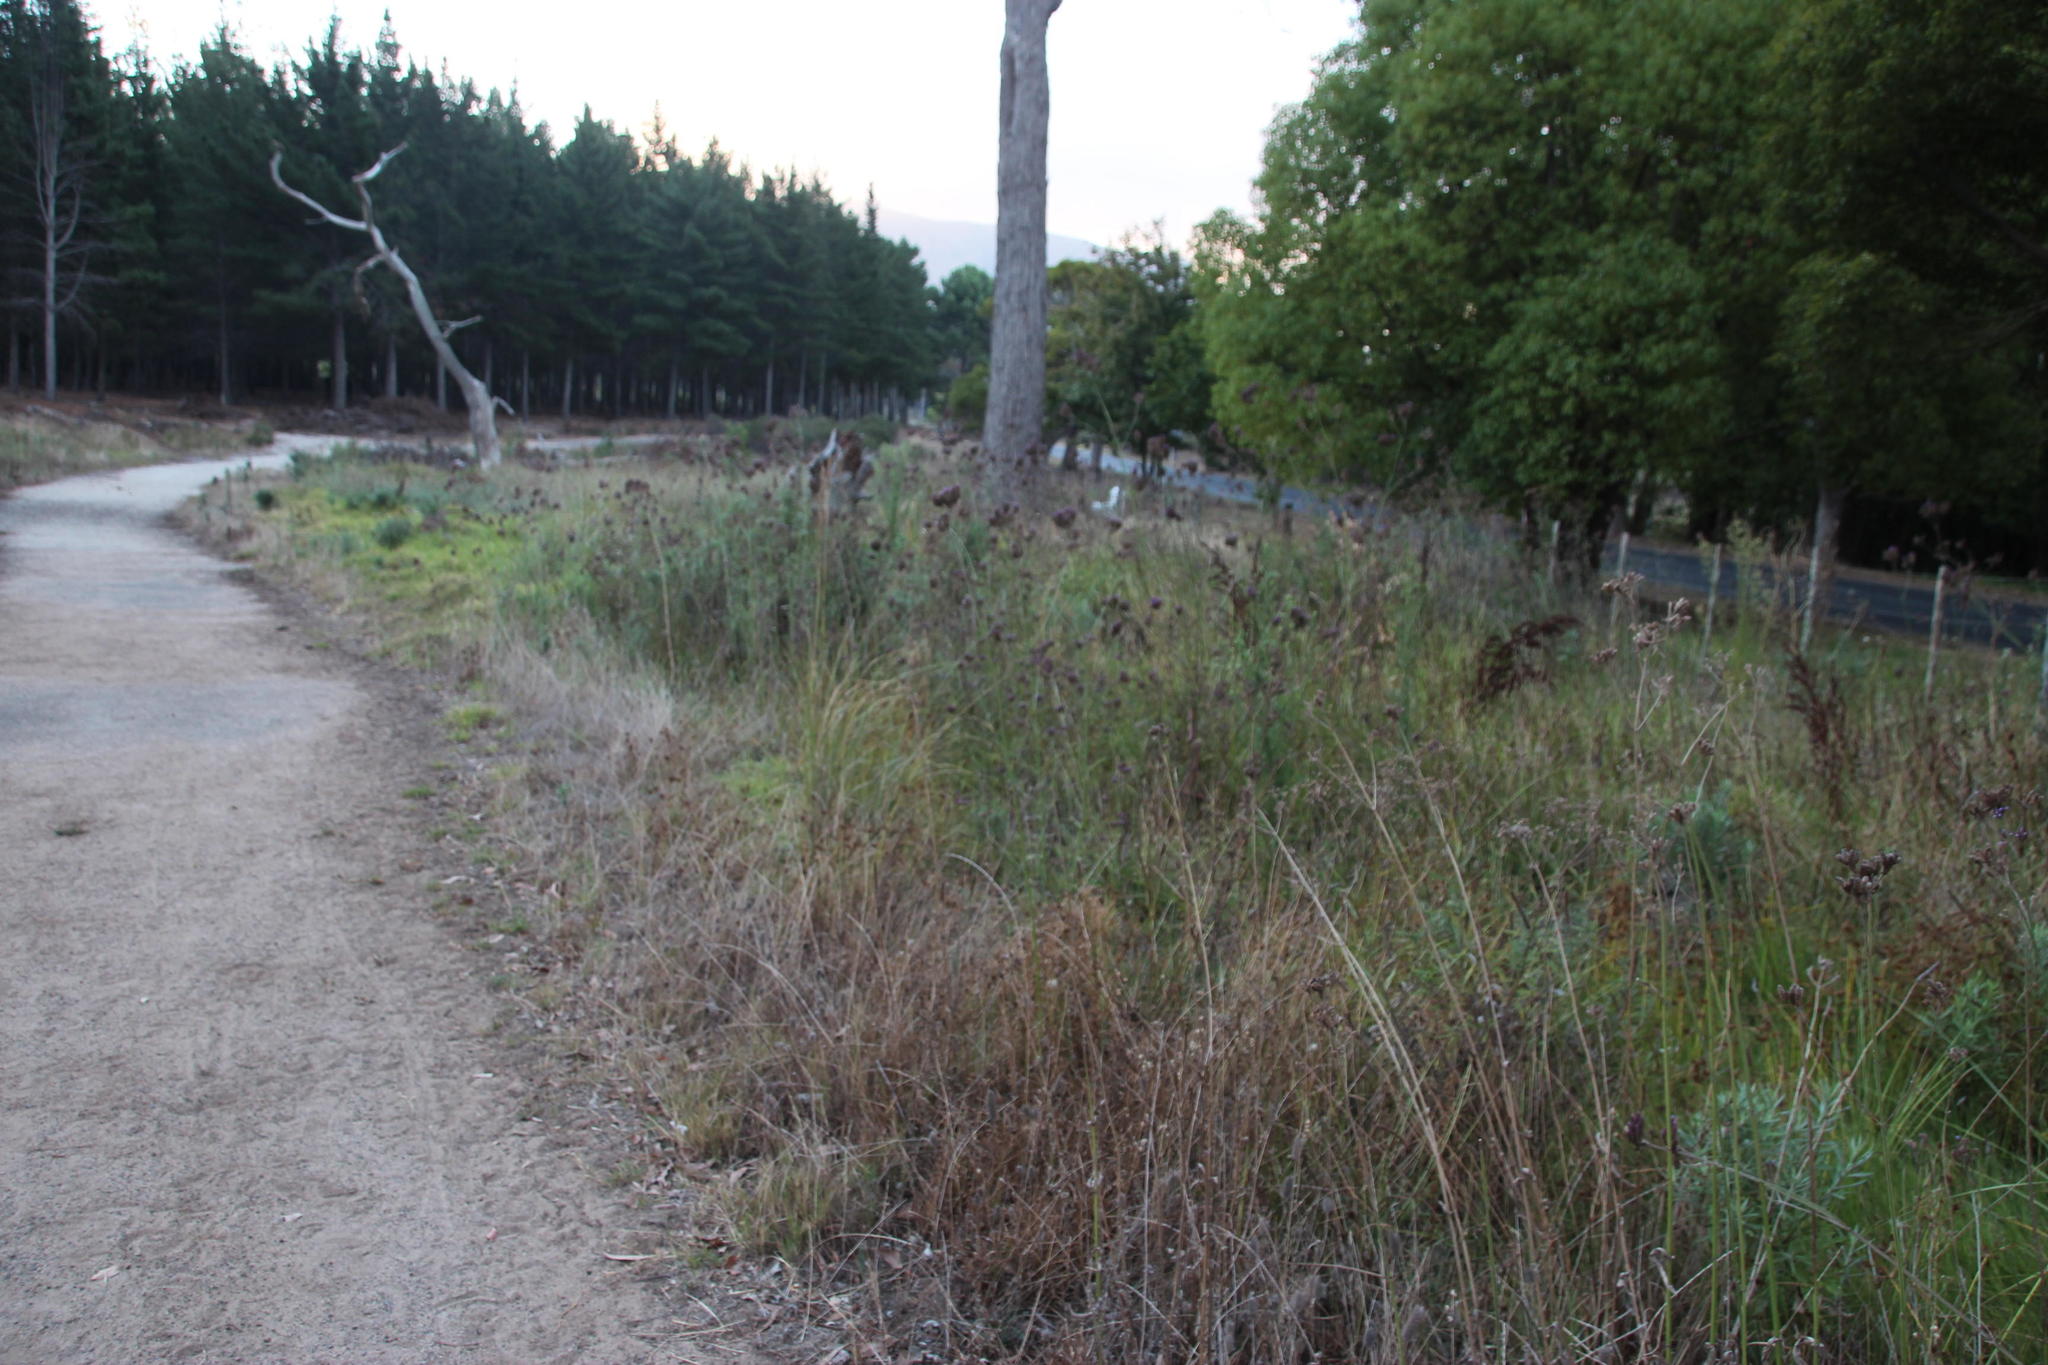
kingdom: Plantae
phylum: Tracheophyta
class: Magnoliopsida
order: Lamiales
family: Verbenaceae
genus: Verbena
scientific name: Verbena bonariensis
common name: Purpletop vervain
